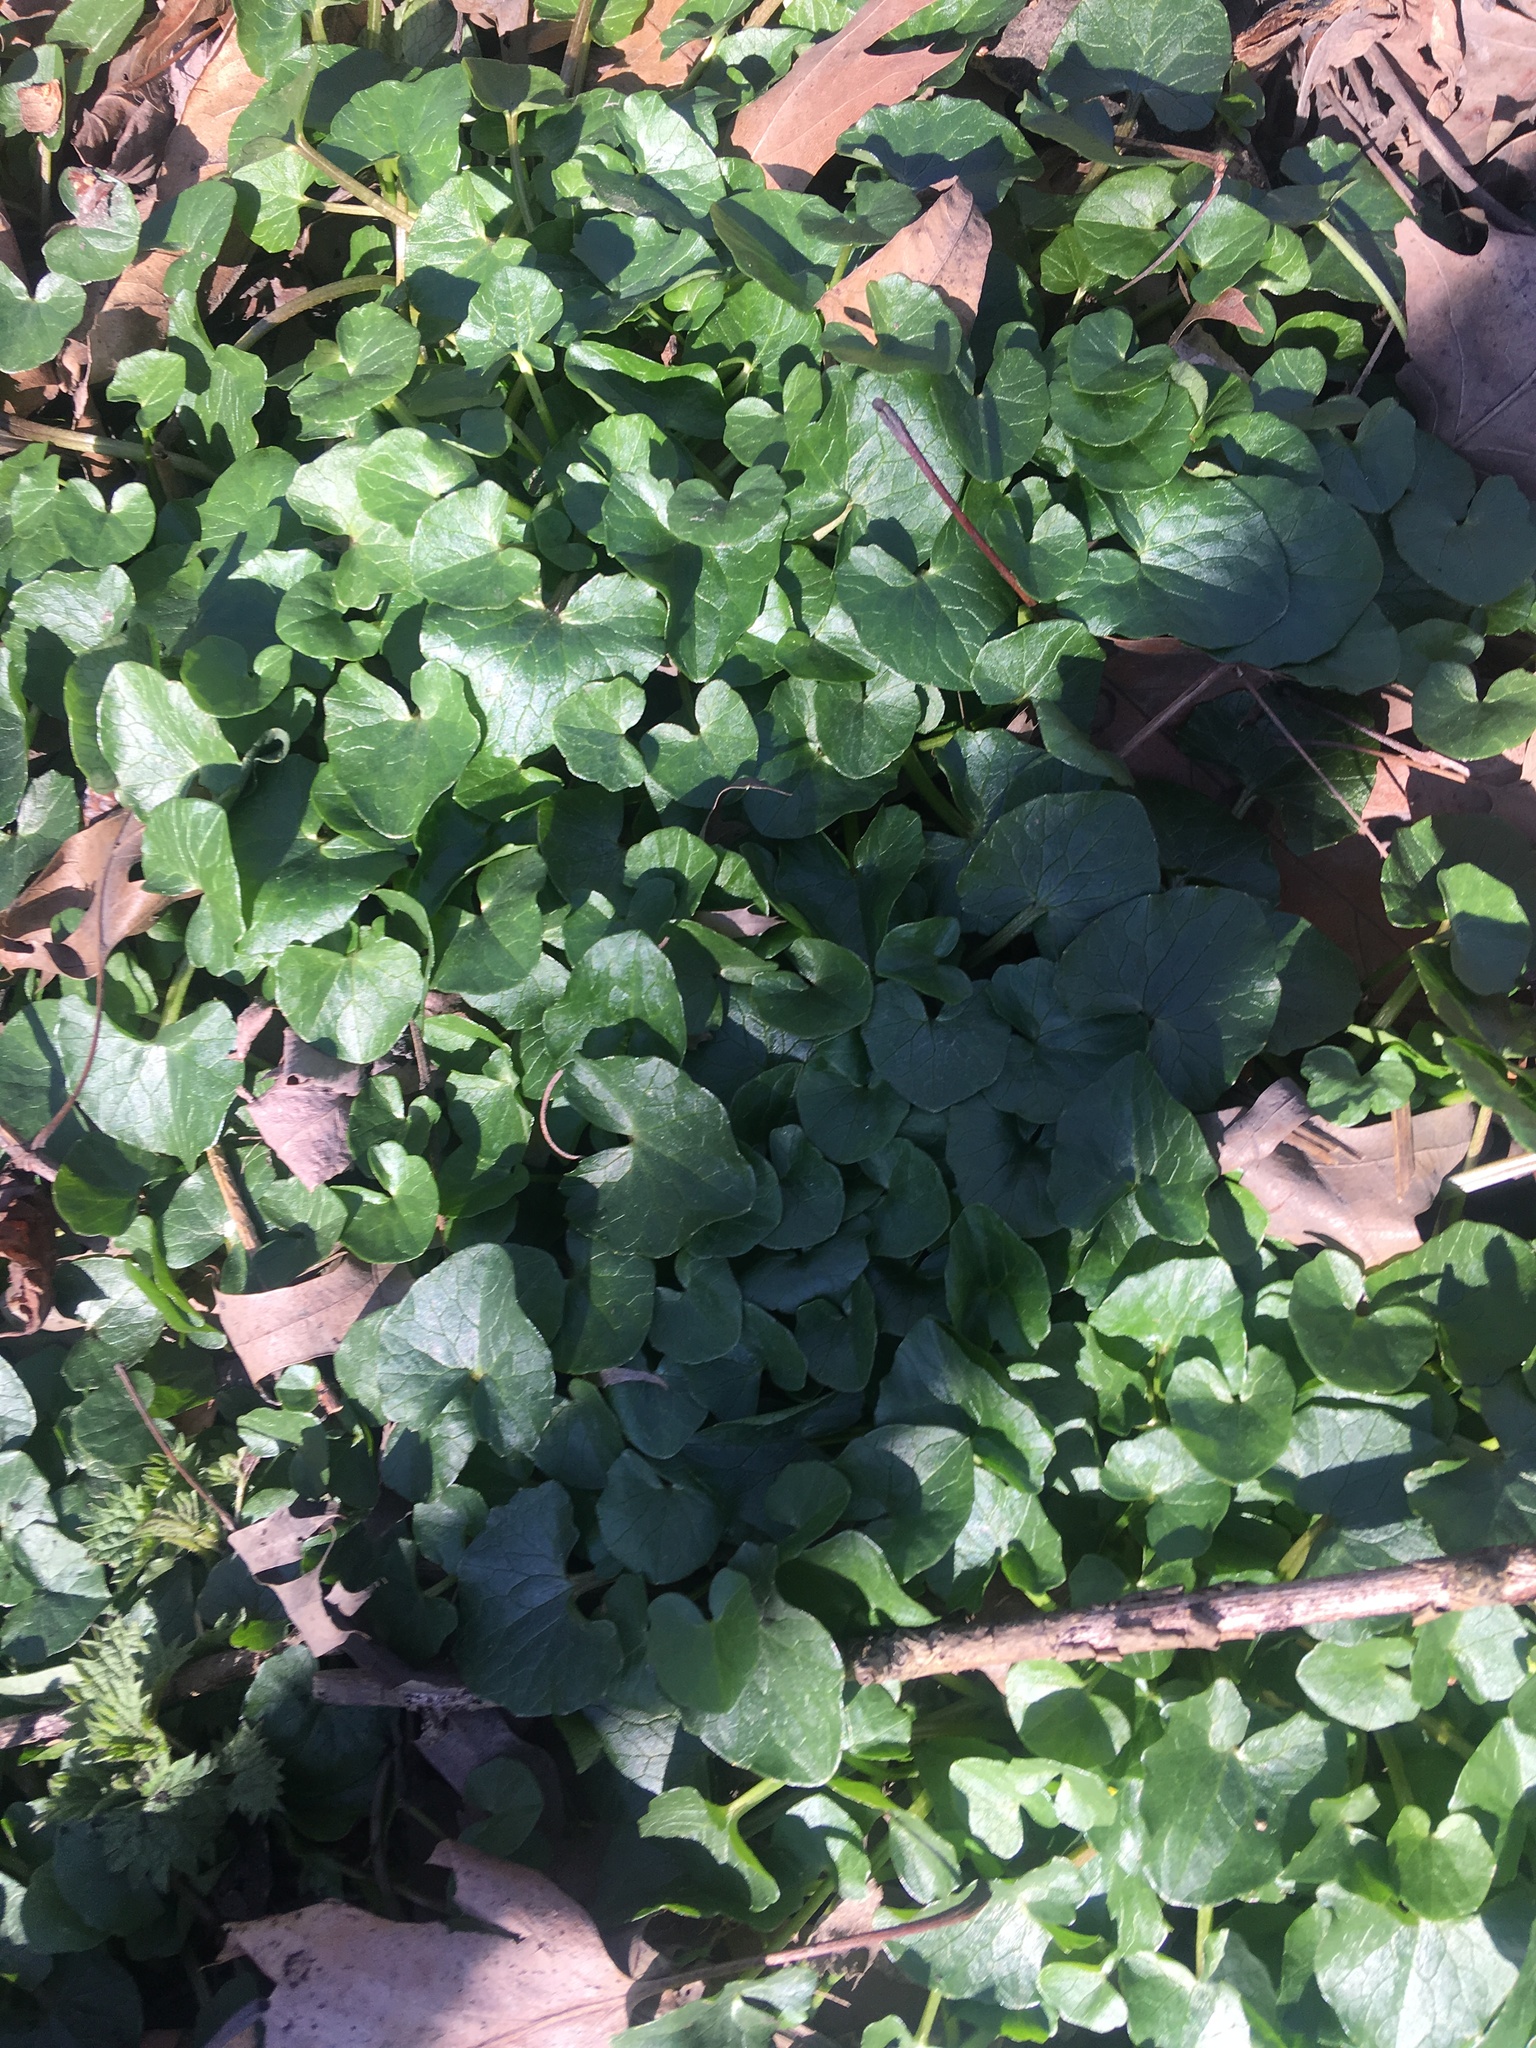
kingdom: Plantae
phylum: Tracheophyta
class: Magnoliopsida
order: Ranunculales
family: Ranunculaceae
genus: Ficaria
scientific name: Ficaria verna
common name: Lesser celandine
